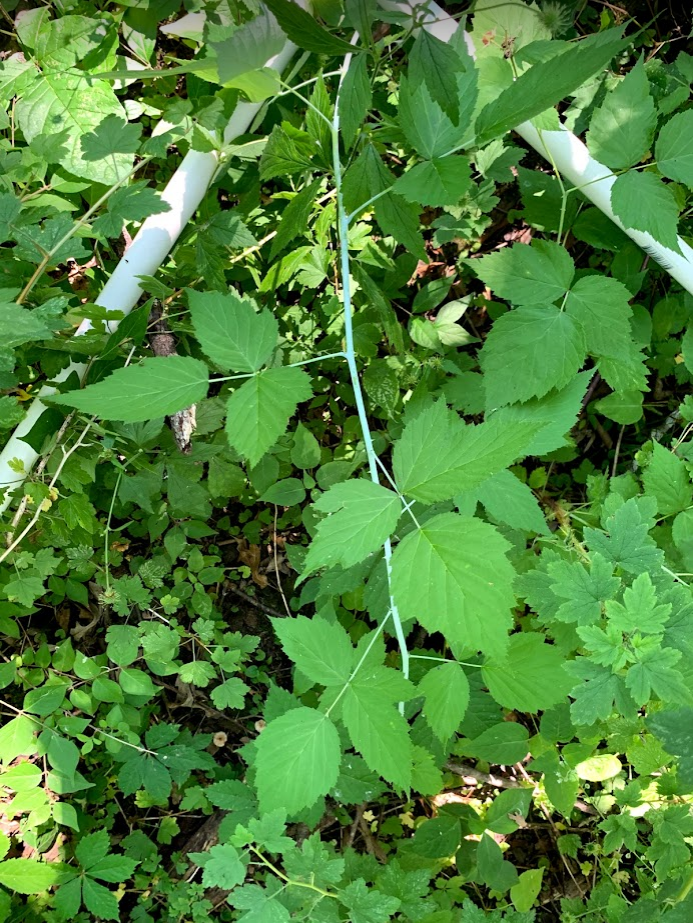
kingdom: Plantae
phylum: Tracheophyta
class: Magnoliopsida
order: Rosales
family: Rosaceae
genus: Rubus
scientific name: Rubus occidentalis
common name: Black raspberry
